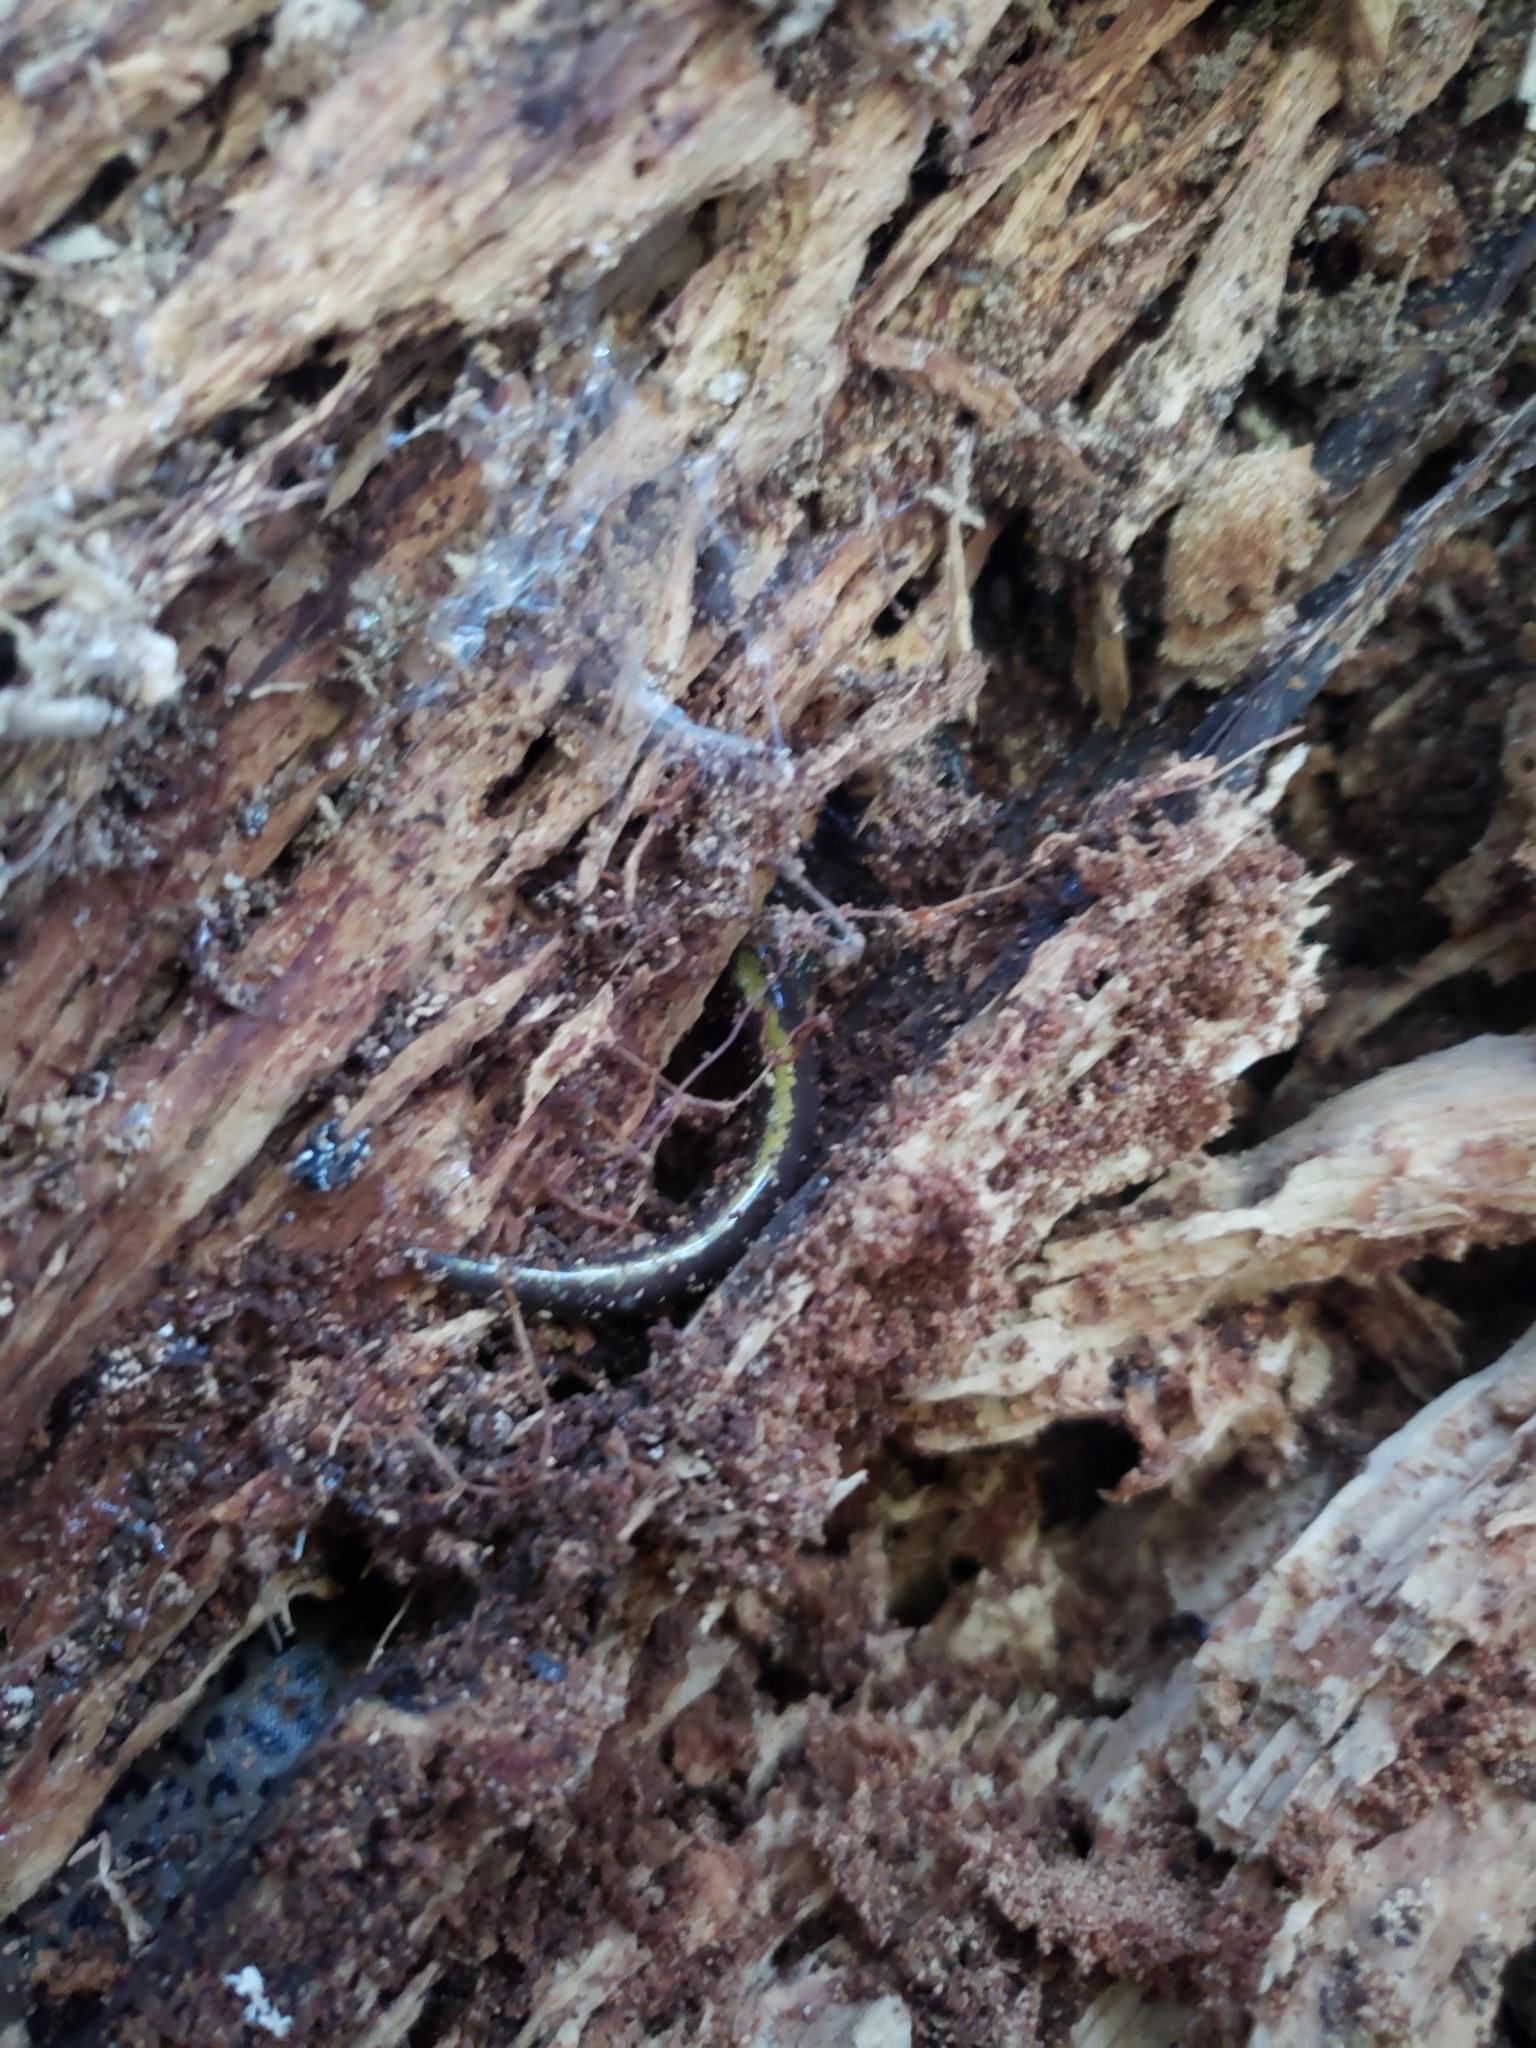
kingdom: Animalia
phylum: Chordata
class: Amphibia
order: Caudata
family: Ambystomatidae
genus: Ambystoma
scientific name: Ambystoma macrodactylum
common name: Long-toed salamander
